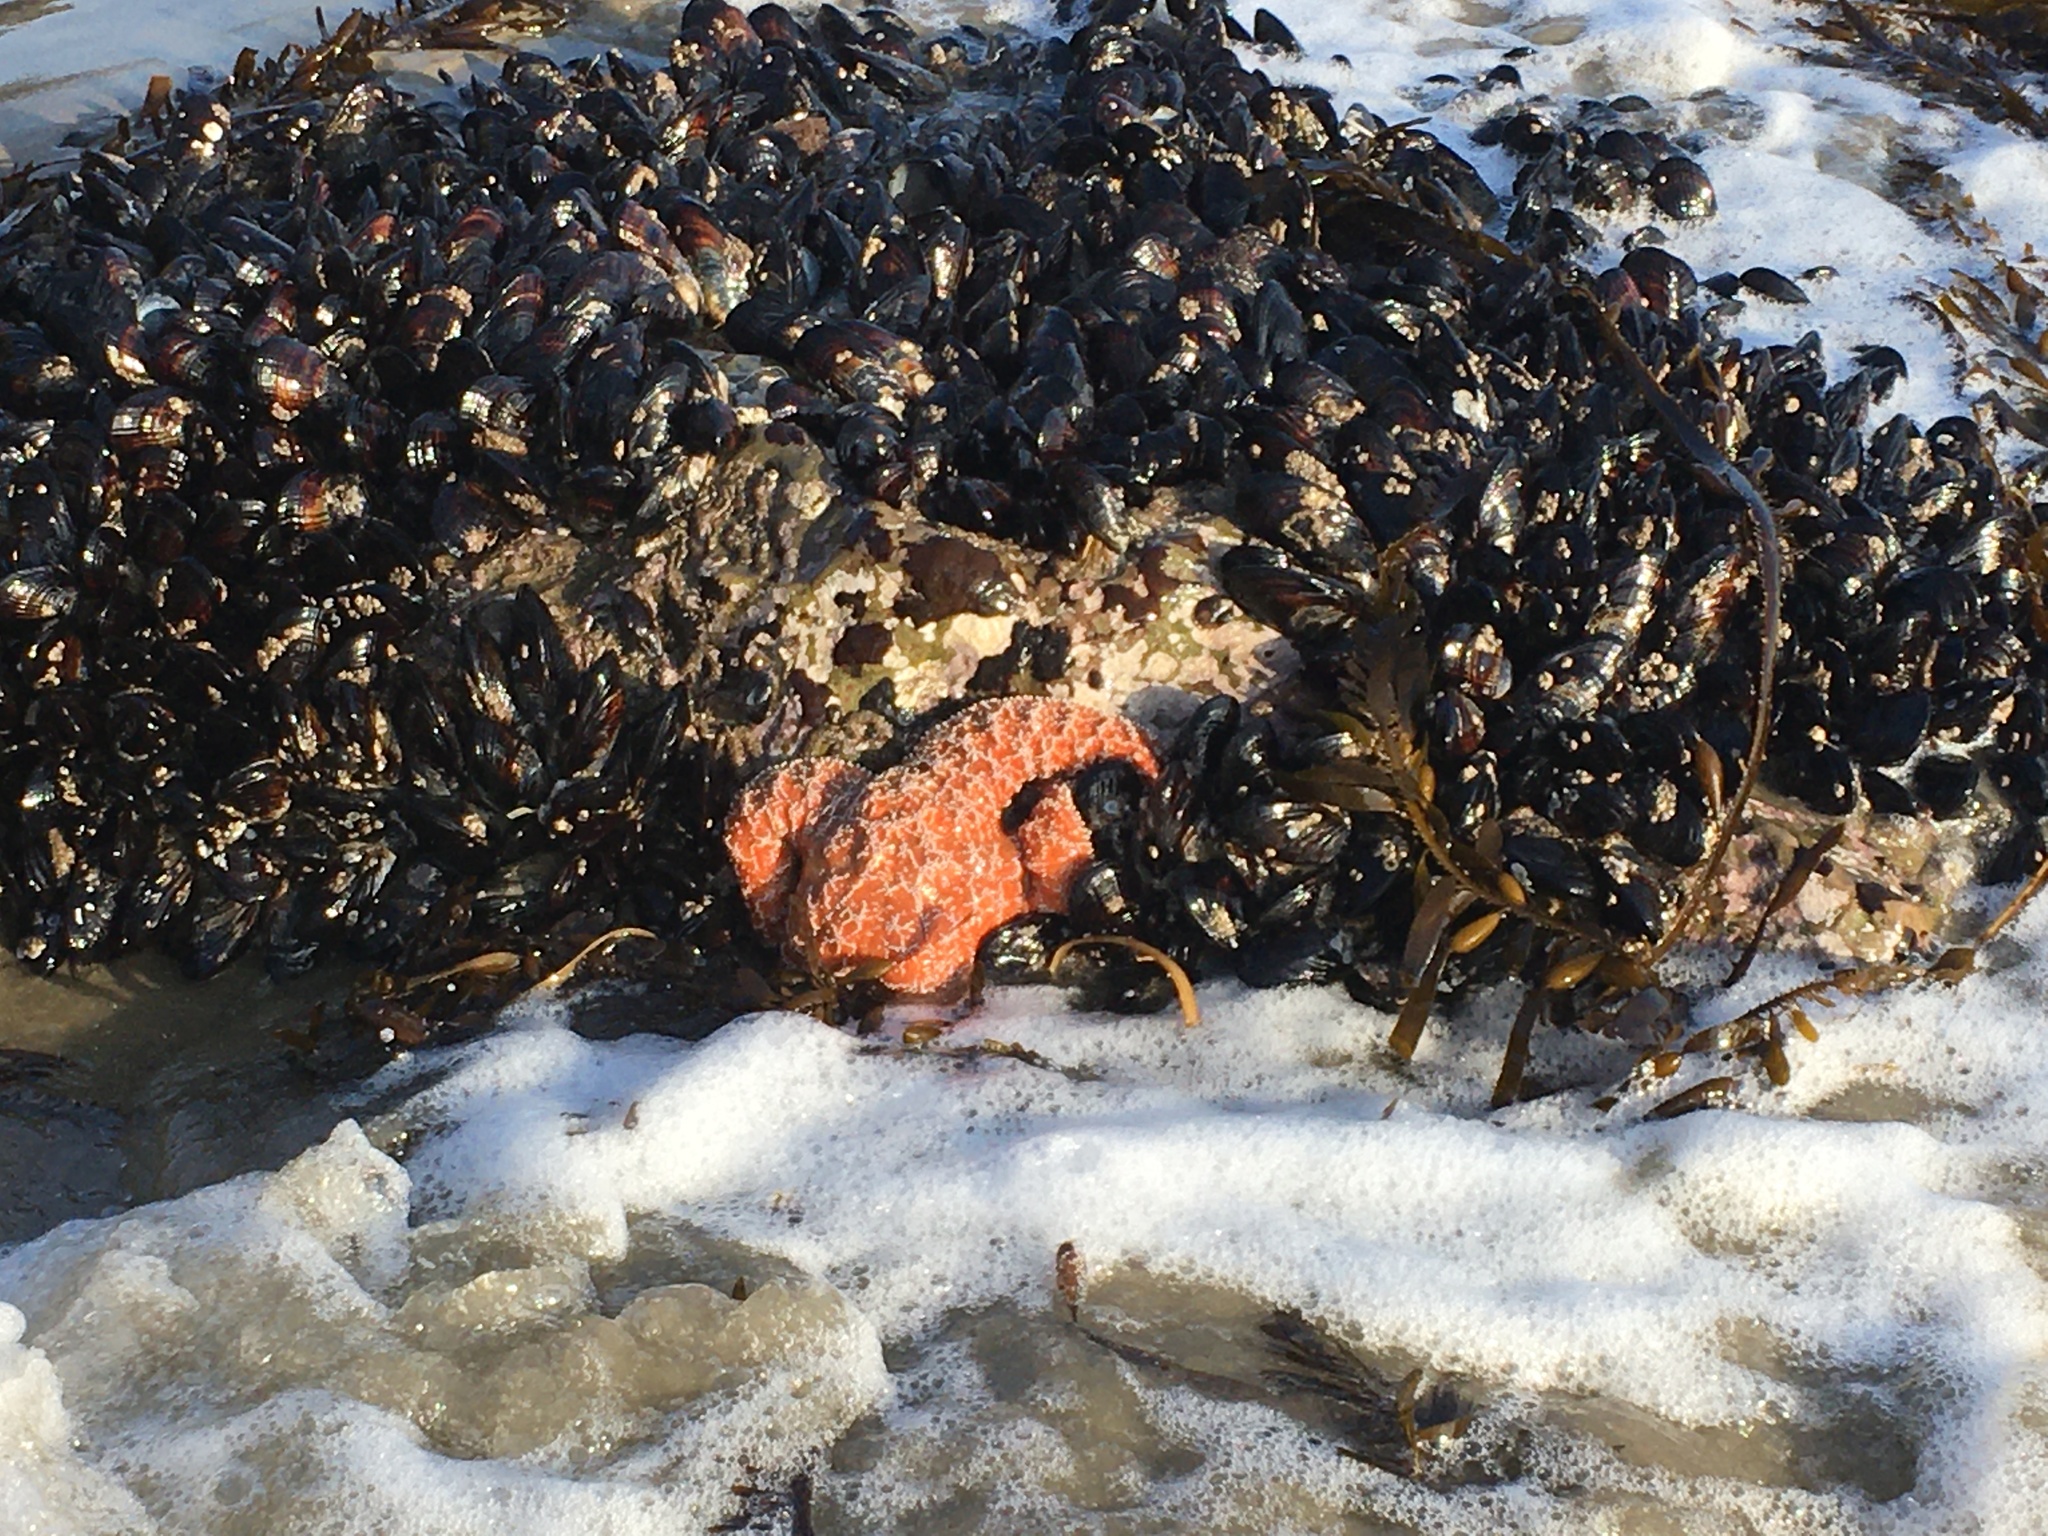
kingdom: Animalia
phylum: Echinodermata
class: Asteroidea
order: Forcipulatida
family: Asteriidae
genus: Pisaster
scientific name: Pisaster ochraceus
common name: Ochre stars
